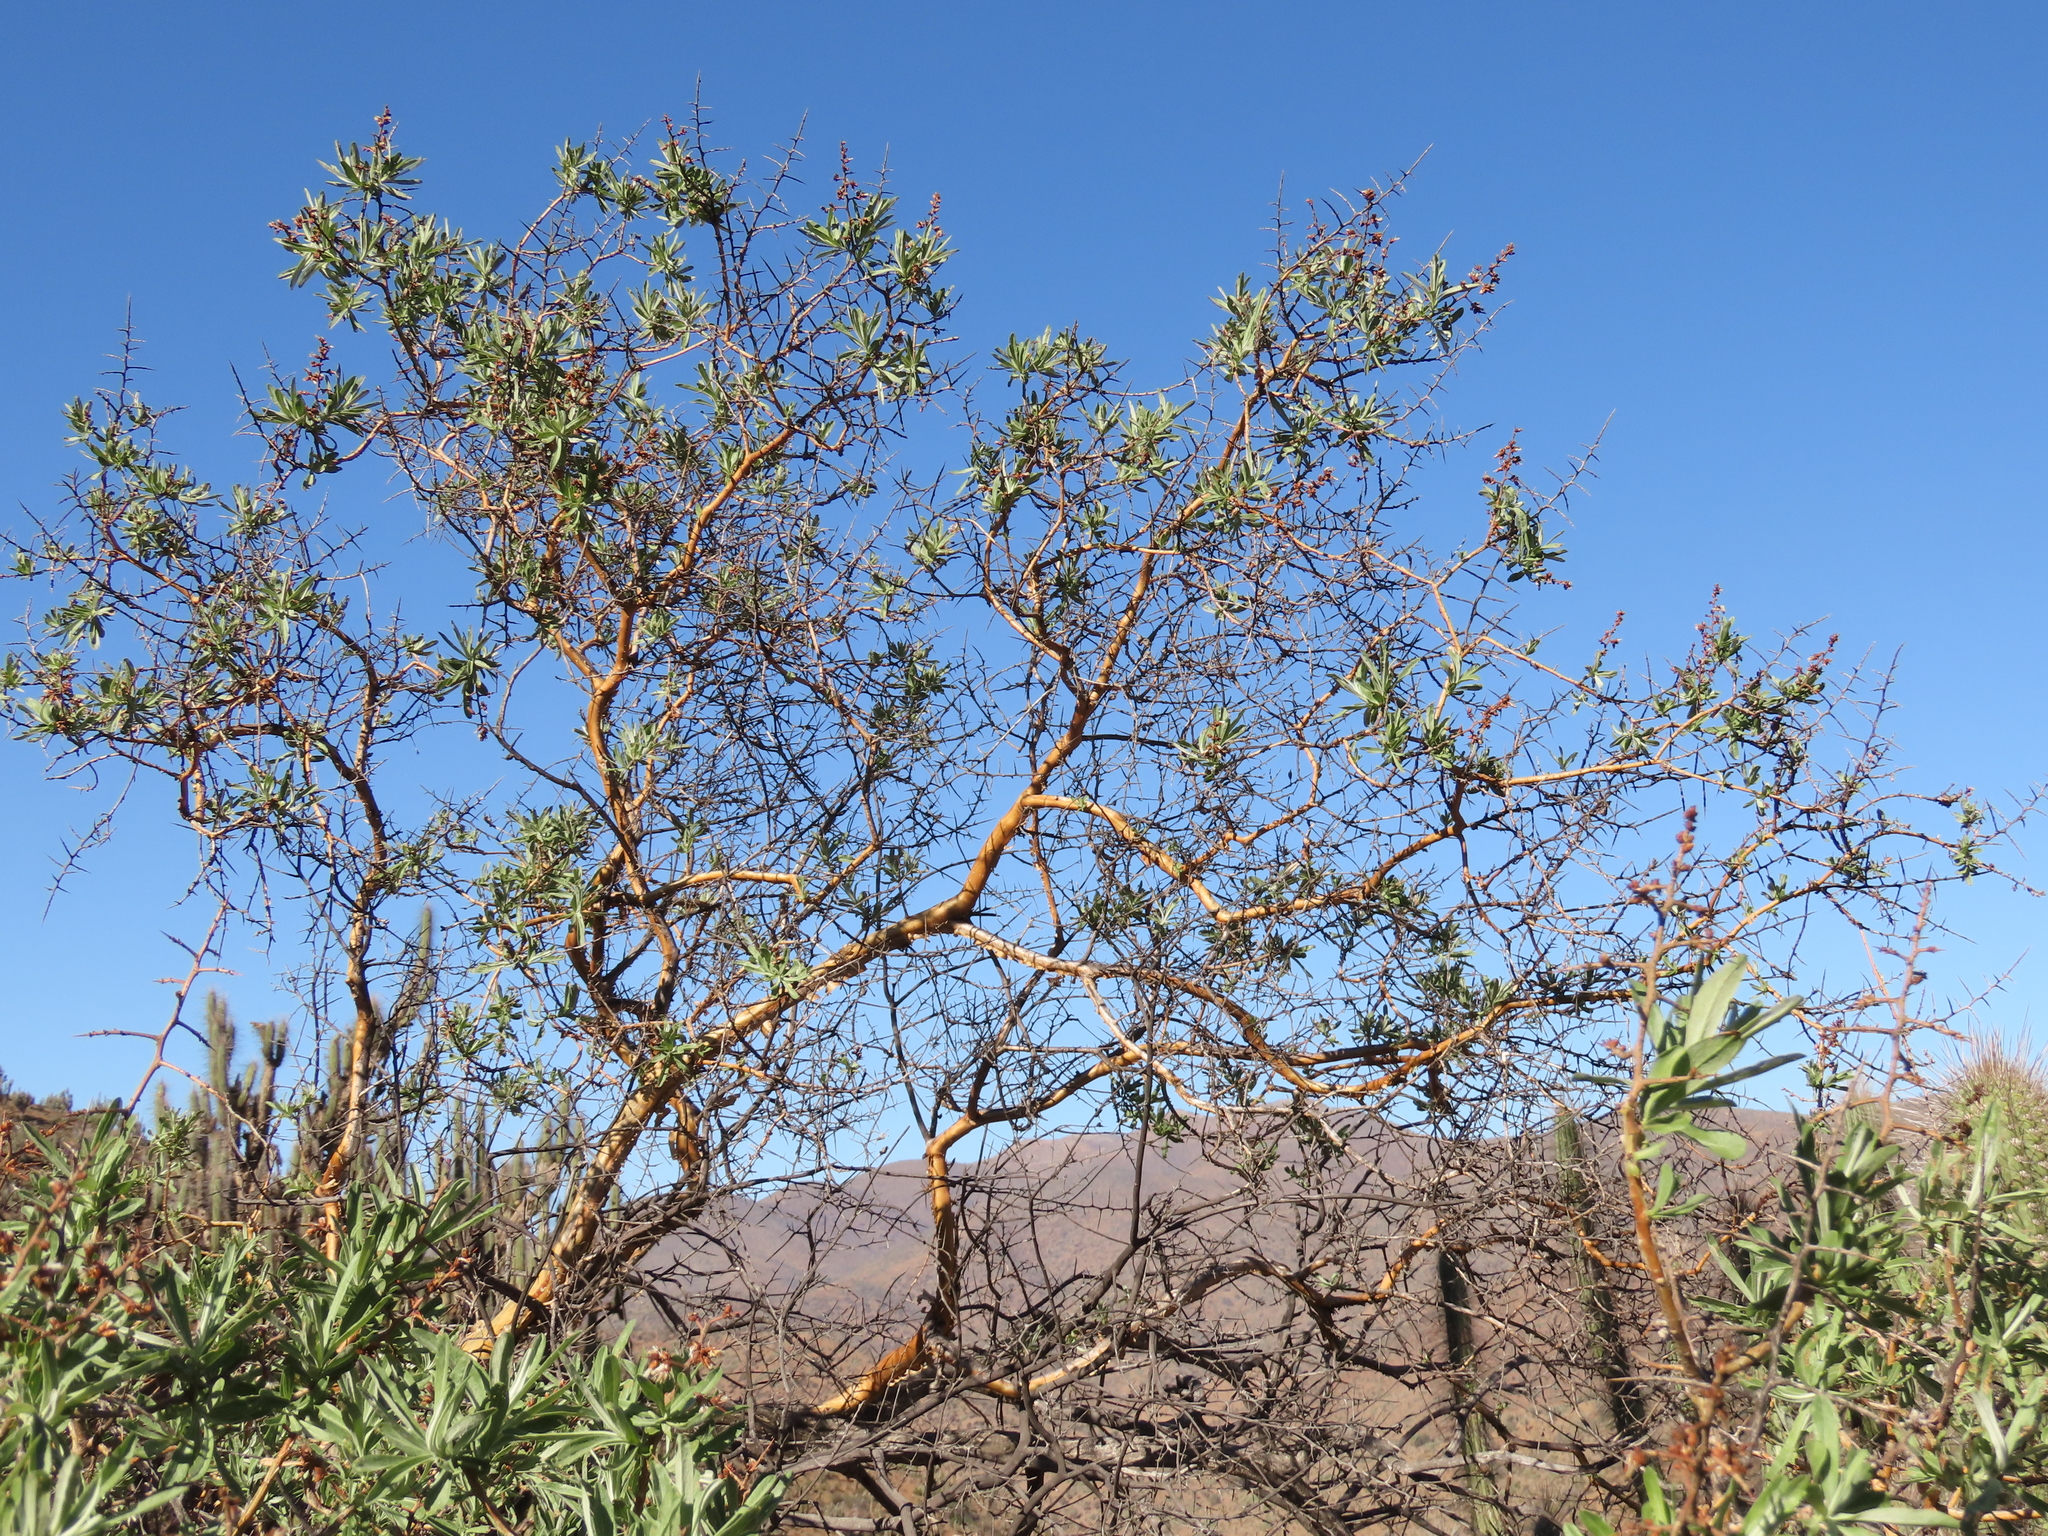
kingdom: Plantae
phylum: Tracheophyta
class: Magnoliopsida
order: Asterales
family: Asteraceae
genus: Proustia
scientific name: Proustia cuneifolia
